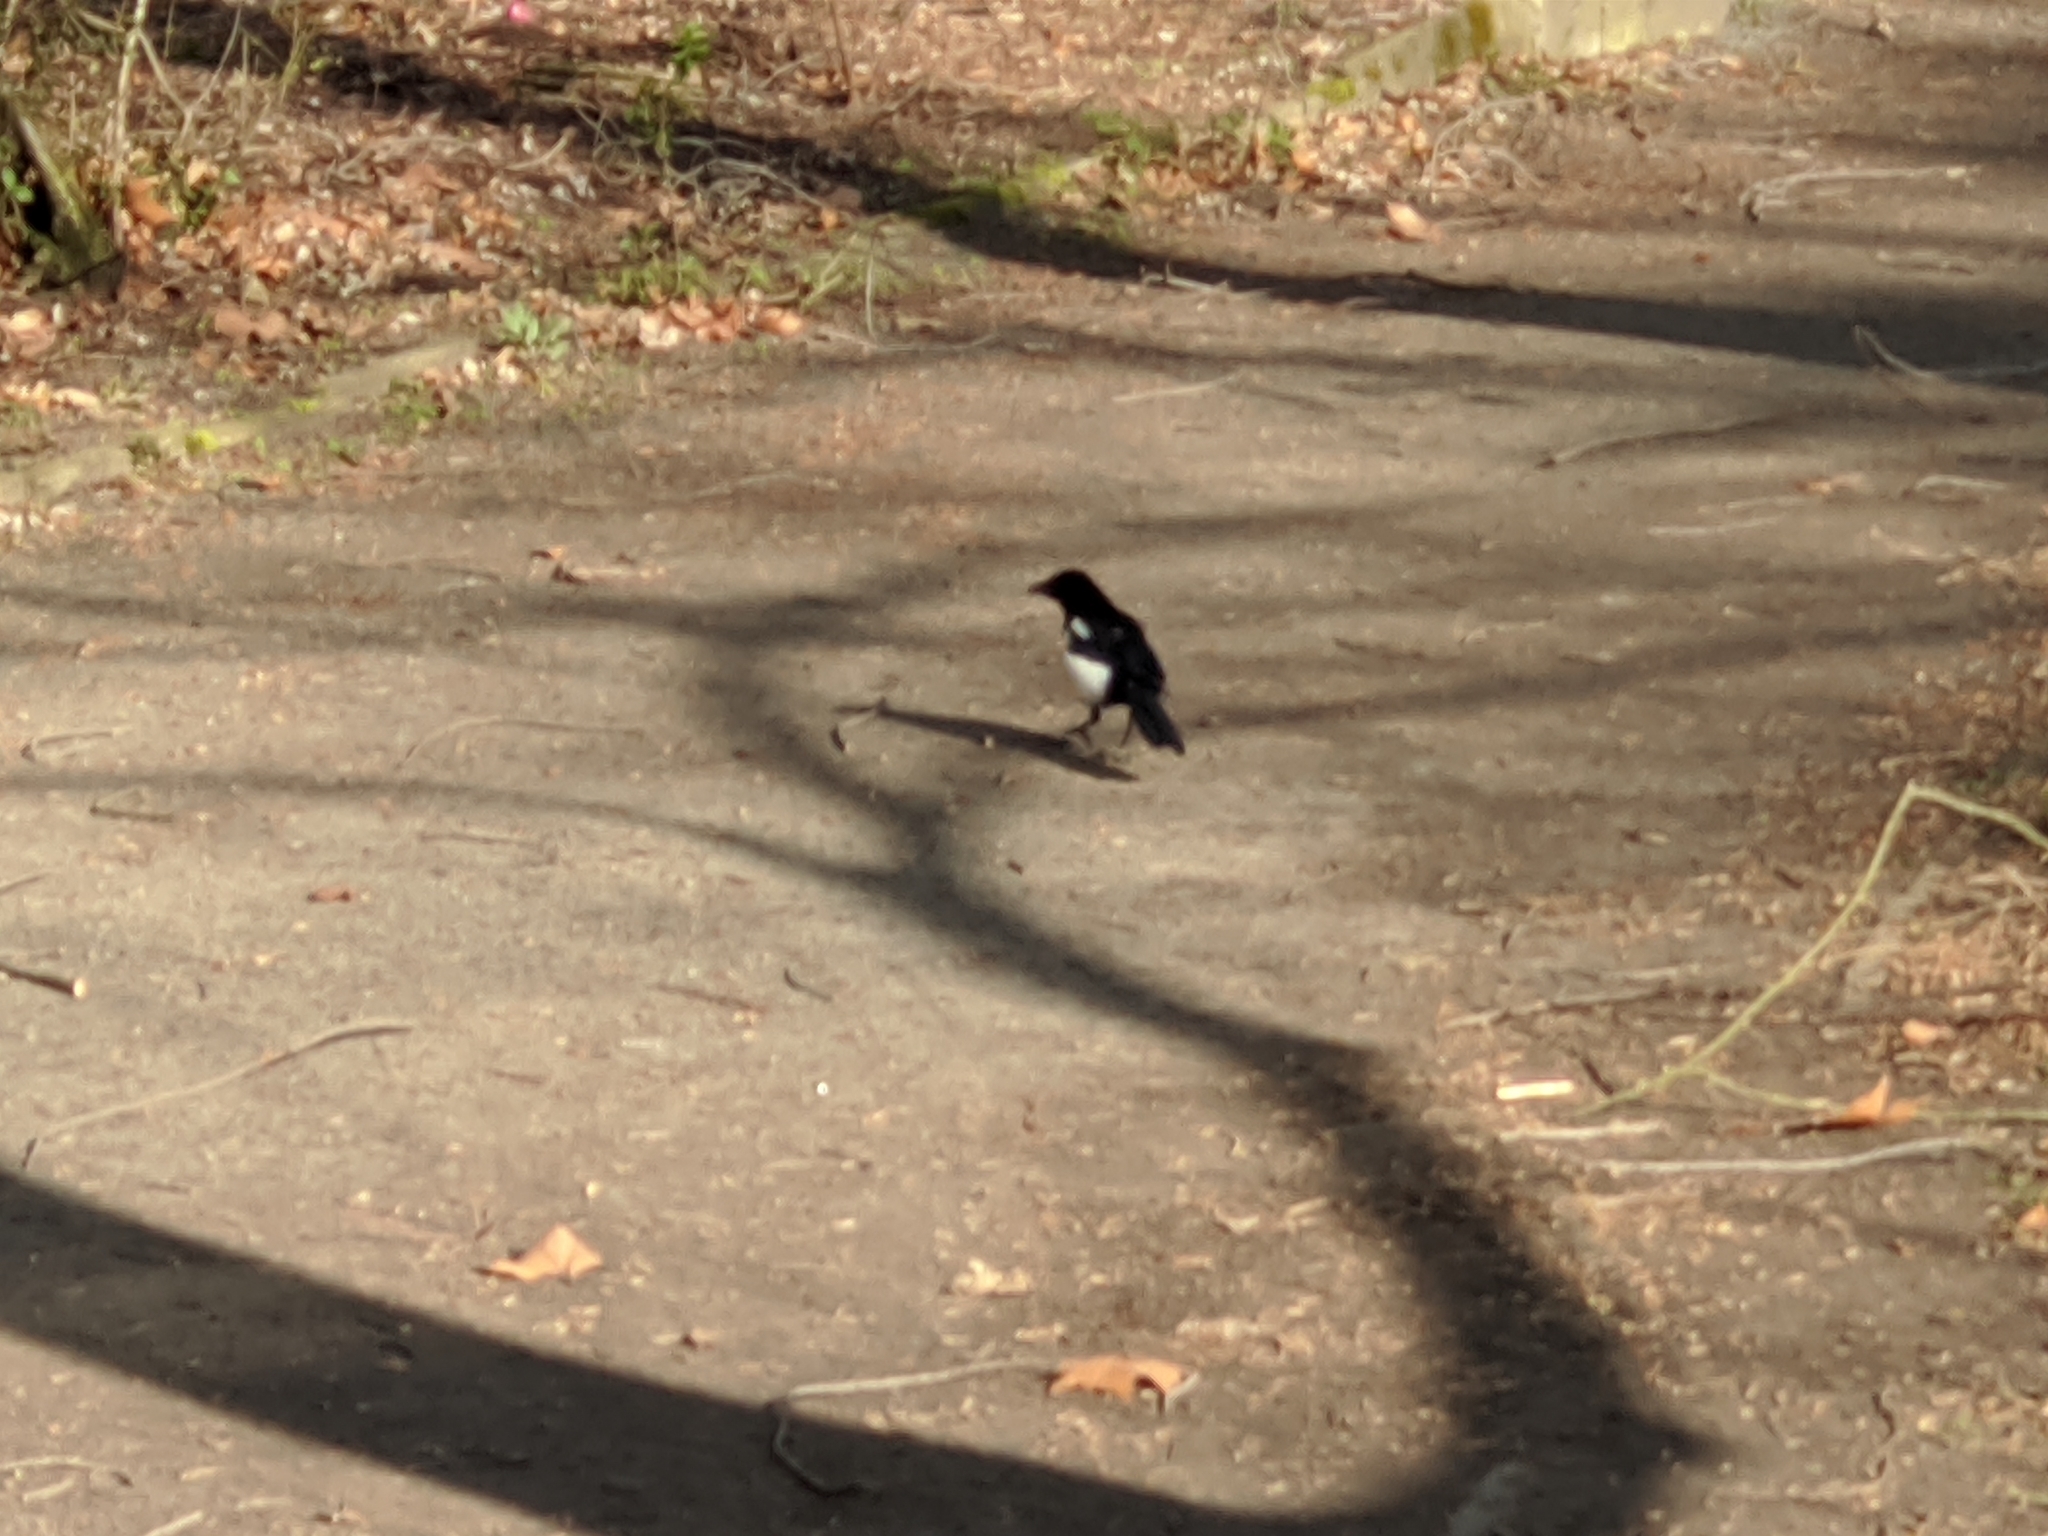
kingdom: Animalia
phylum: Chordata
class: Aves
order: Passeriformes
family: Corvidae
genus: Pica
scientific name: Pica pica
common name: Eurasian magpie
